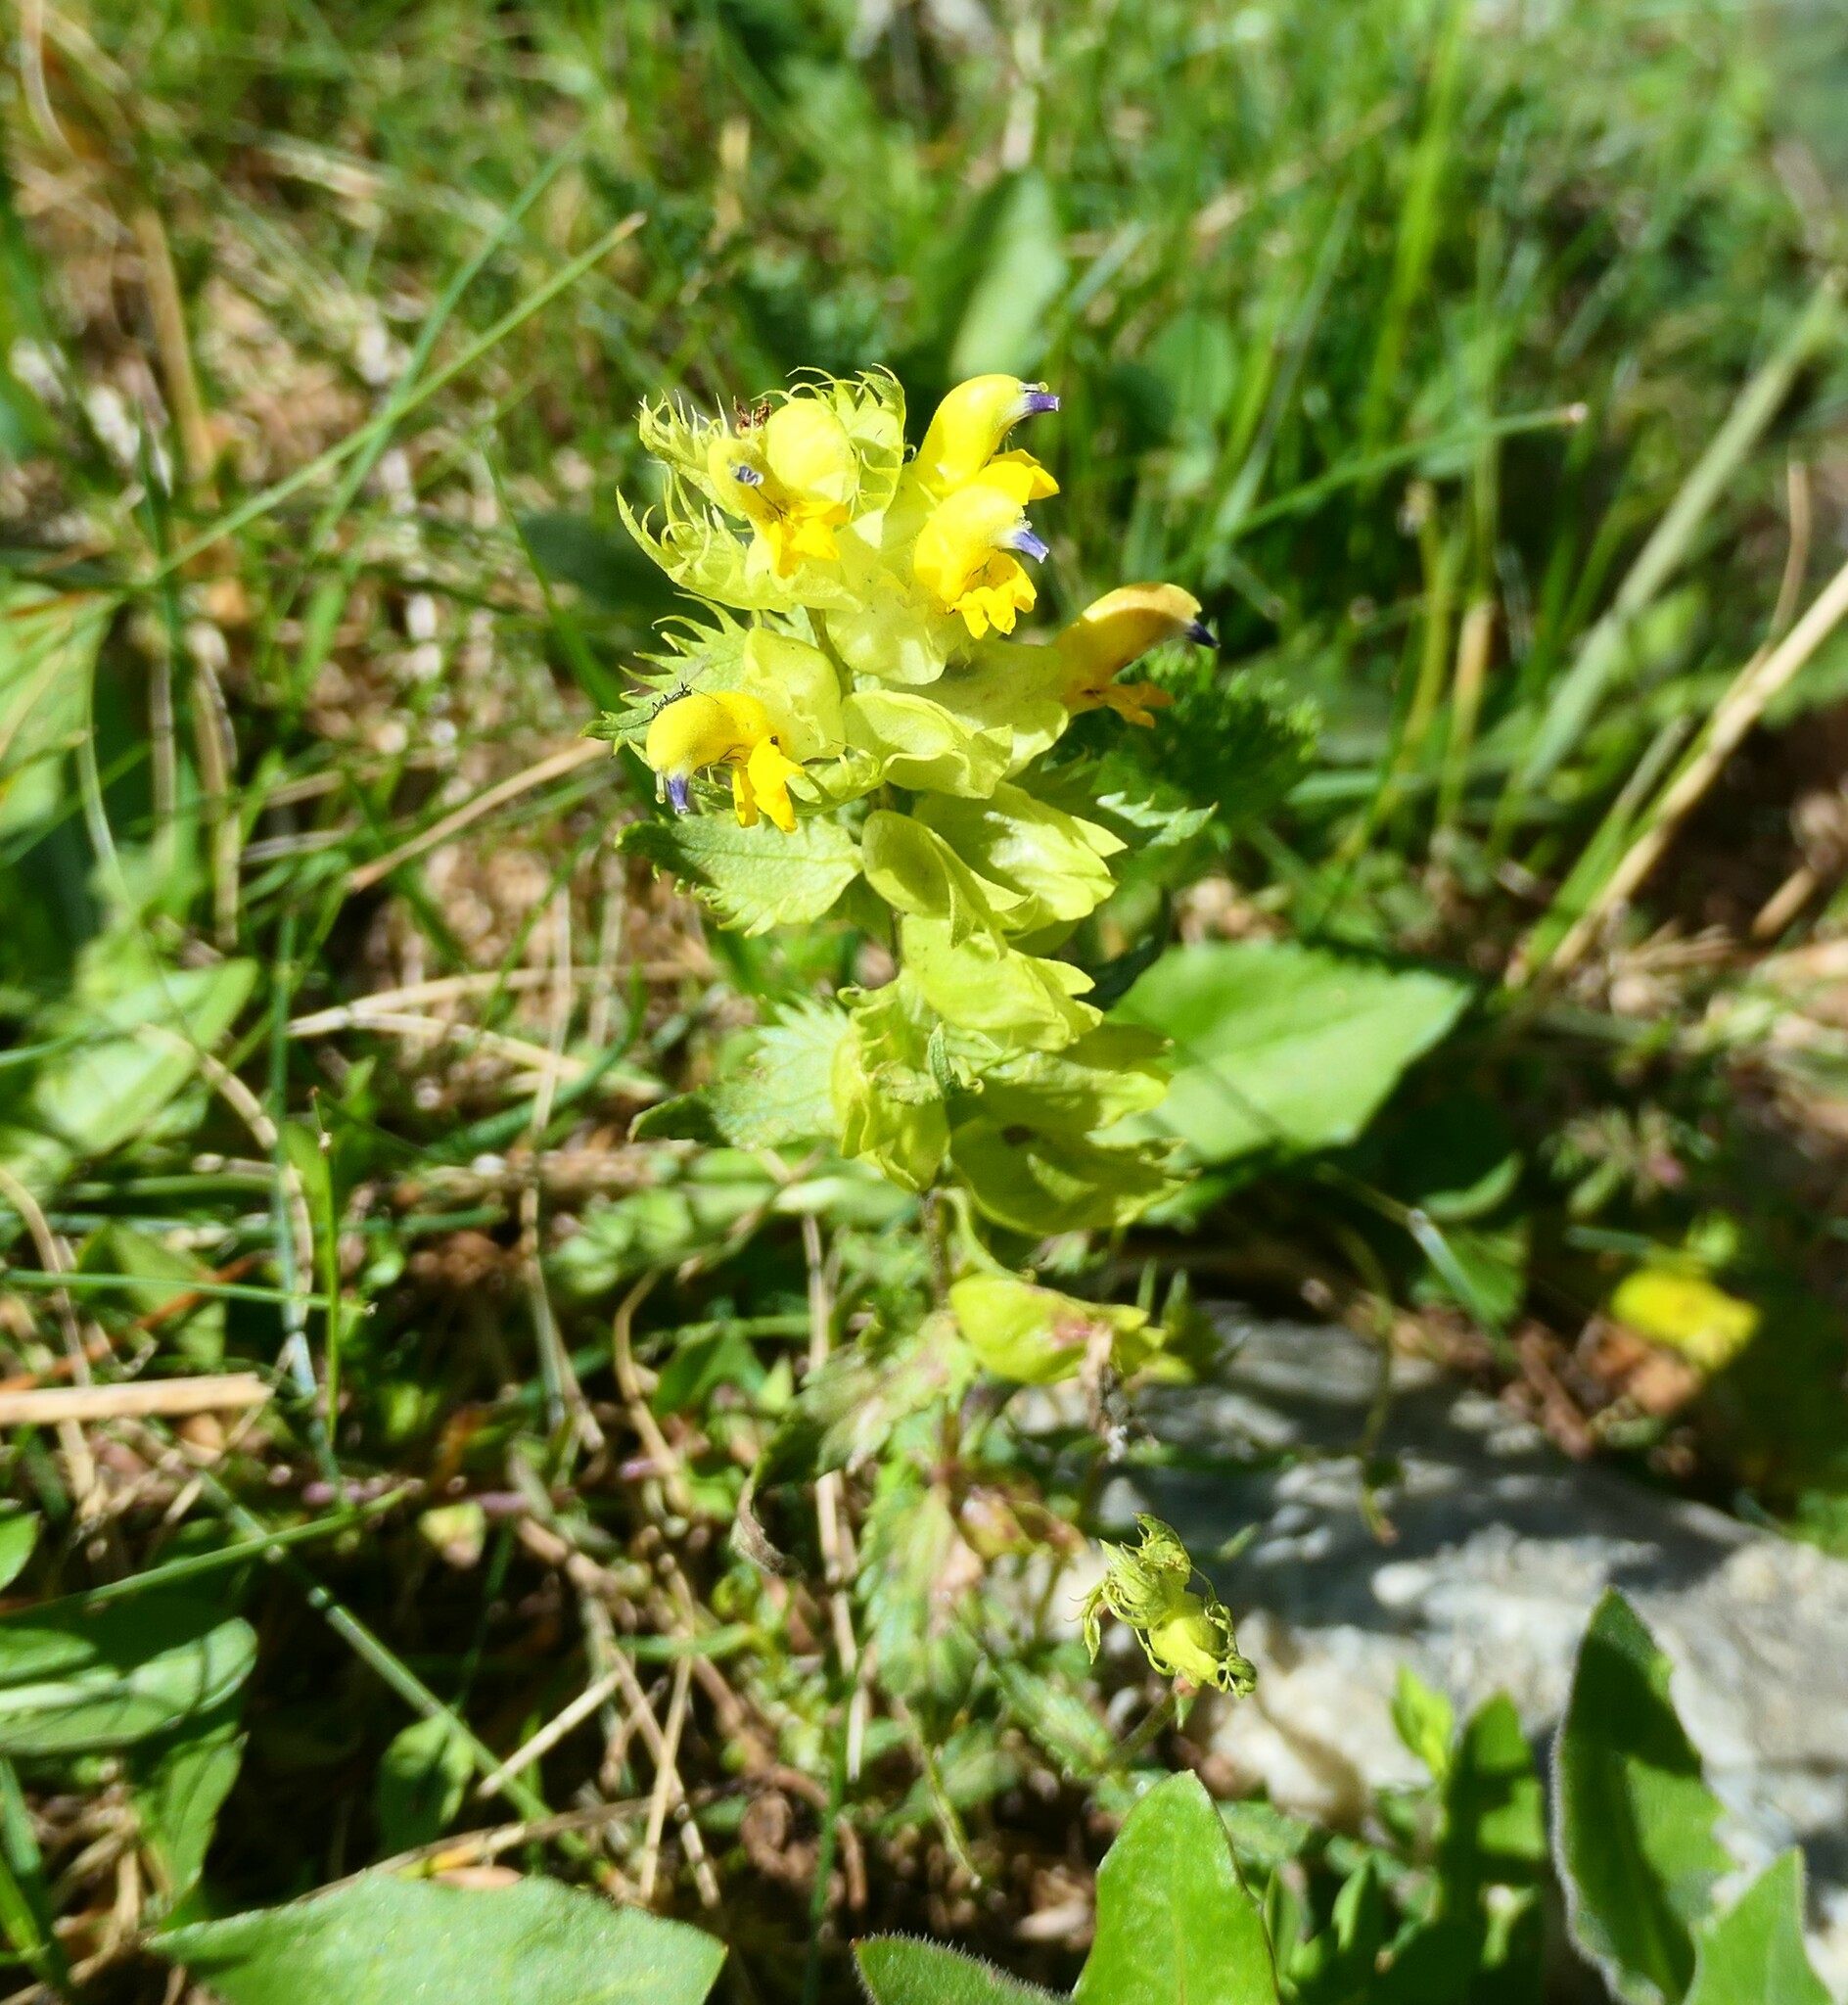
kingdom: Plantae
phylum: Tracheophyta
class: Magnoliopsida
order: Lamiales
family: Orobanchaceae
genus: Rhinanthus
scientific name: Rhinanthus glacialis
